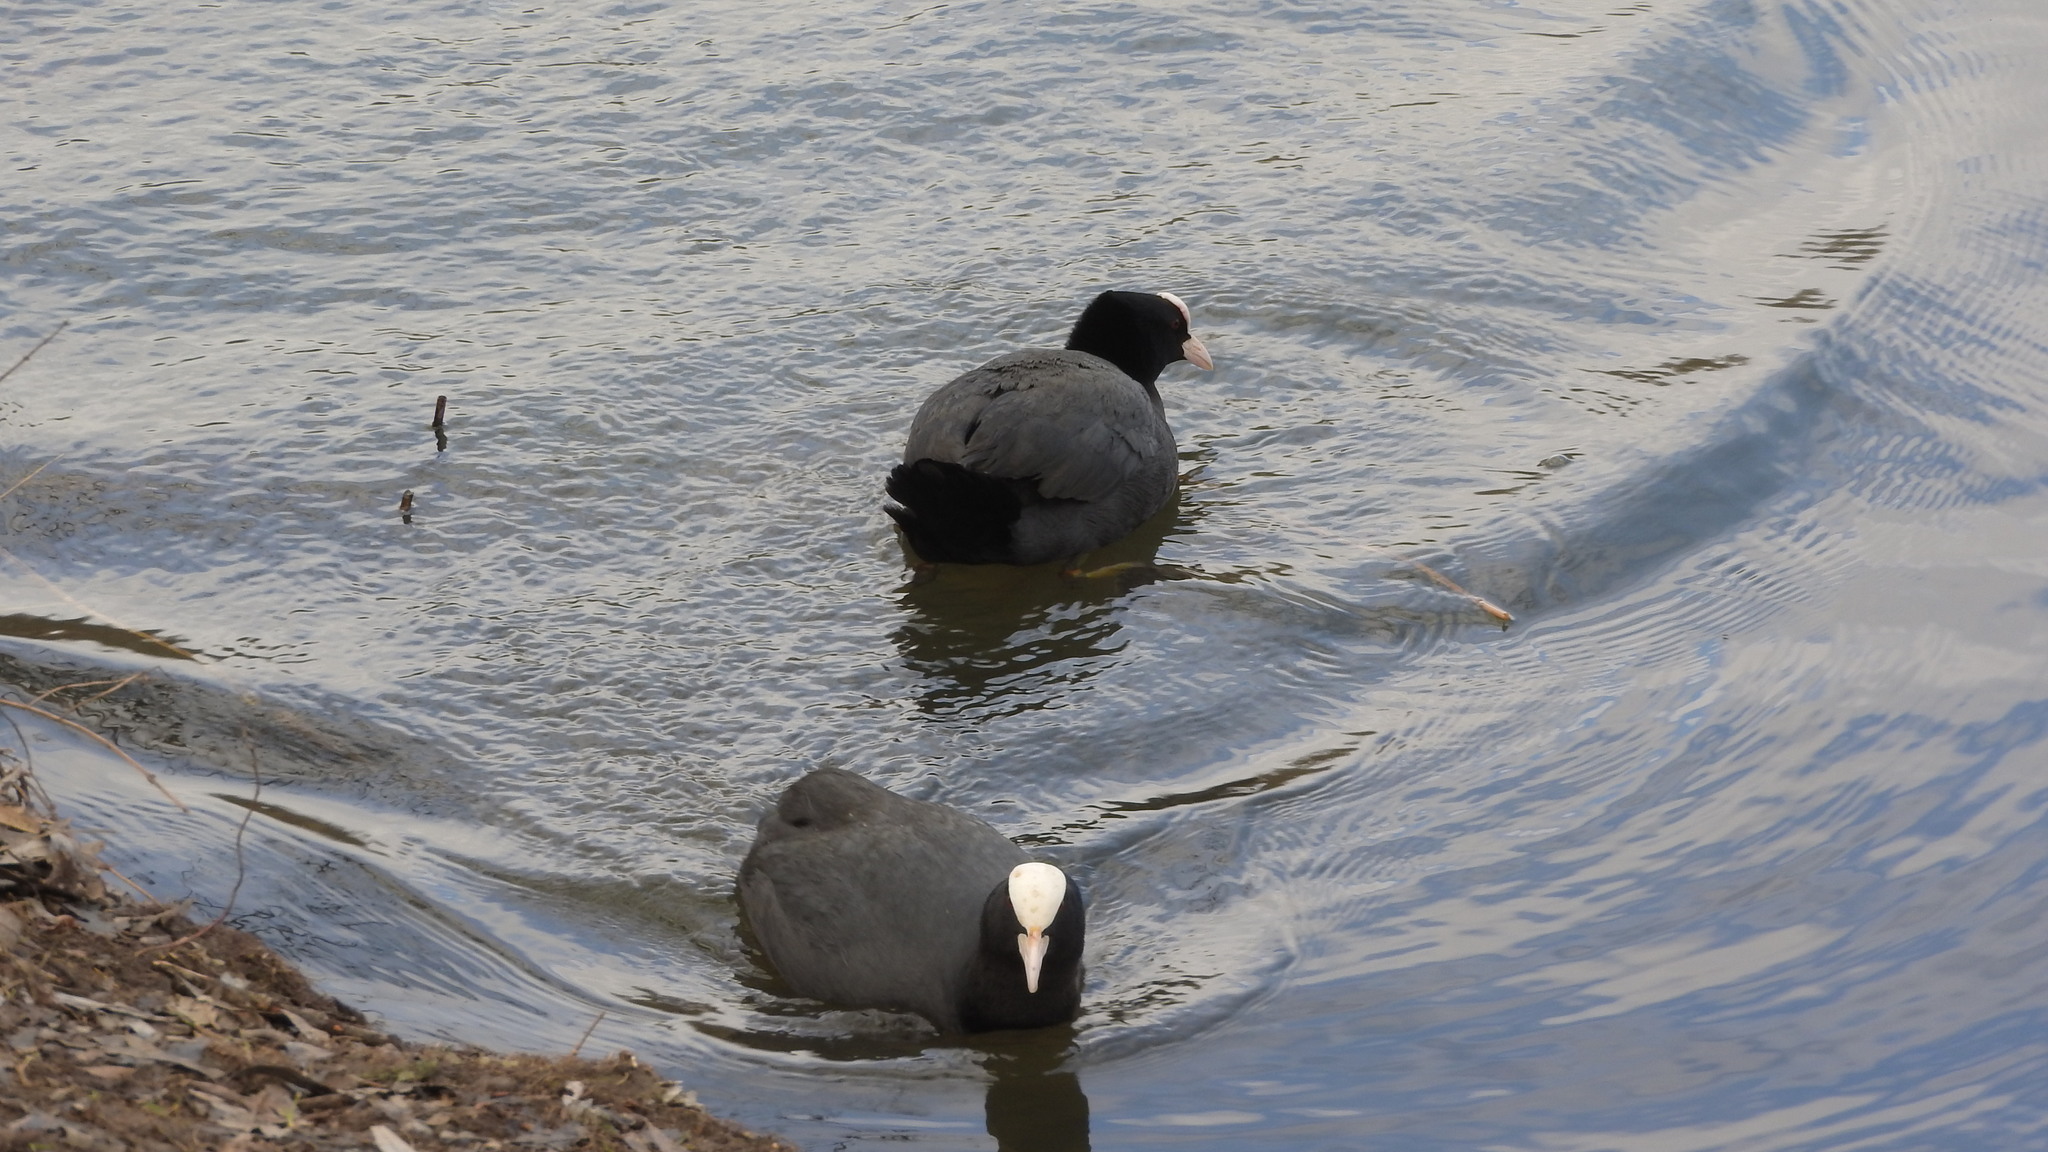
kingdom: Animalia
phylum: Chordata
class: Aves
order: Gruiformes
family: Rallidae
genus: Fulica
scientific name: Fulica atra
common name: Eurasian coot
